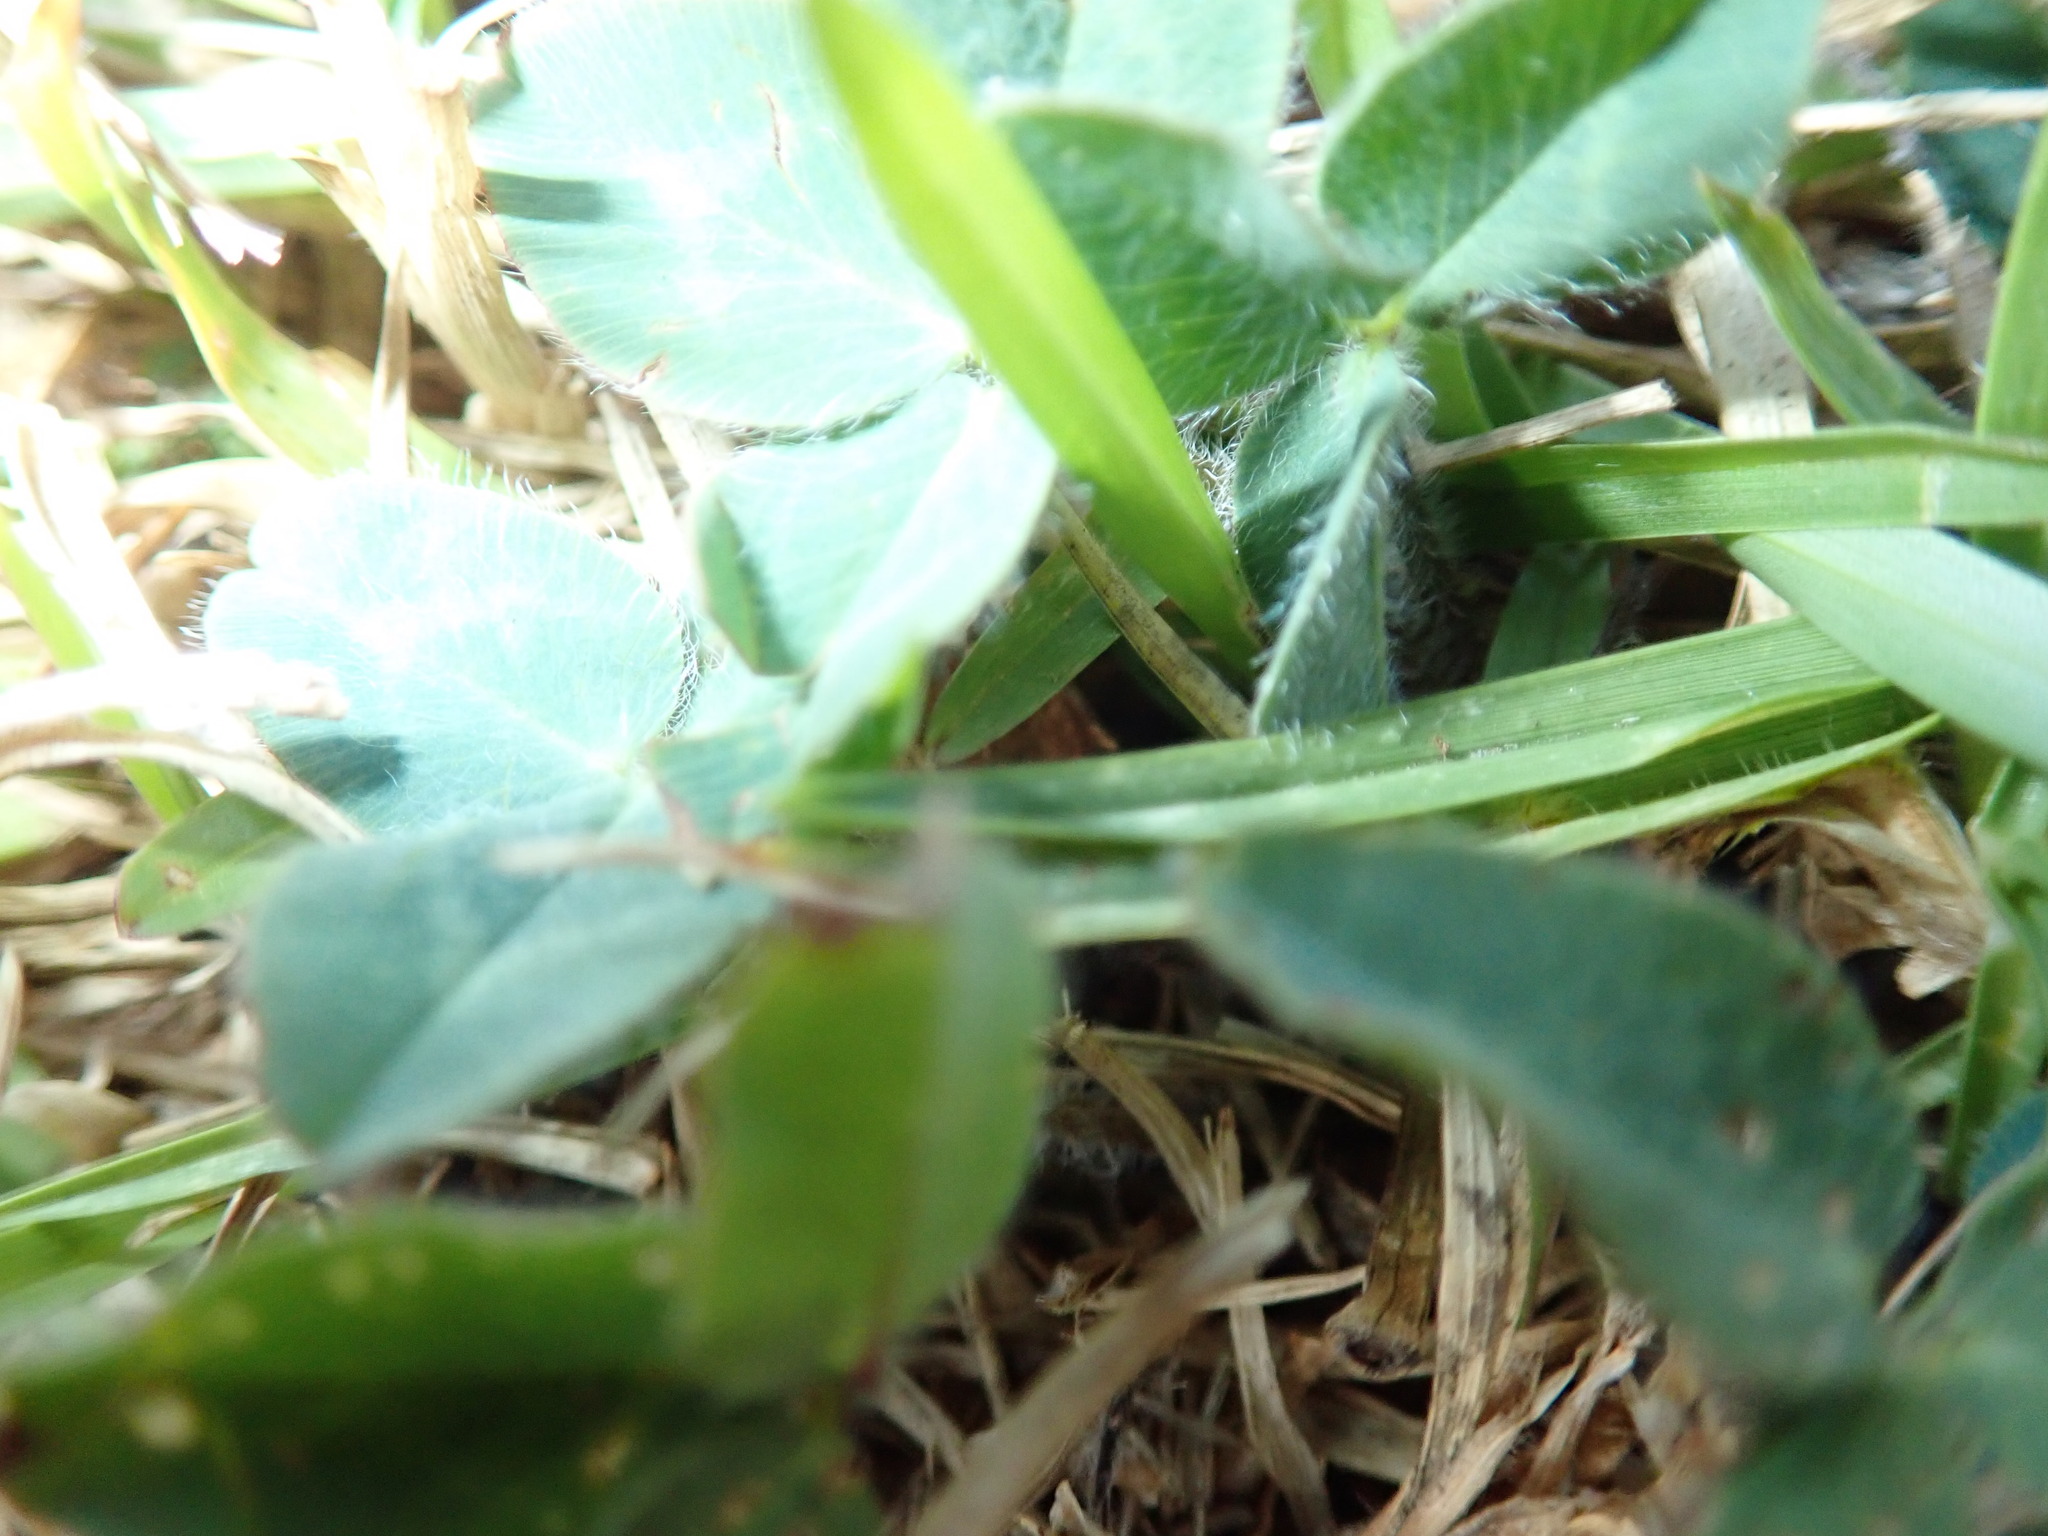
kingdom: Plantae
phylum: Tracheophyta
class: Magnoliopsida
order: Fabales
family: Fabaceae
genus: Trifolium
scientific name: Trifolium subterraneum
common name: Subterranean clover
